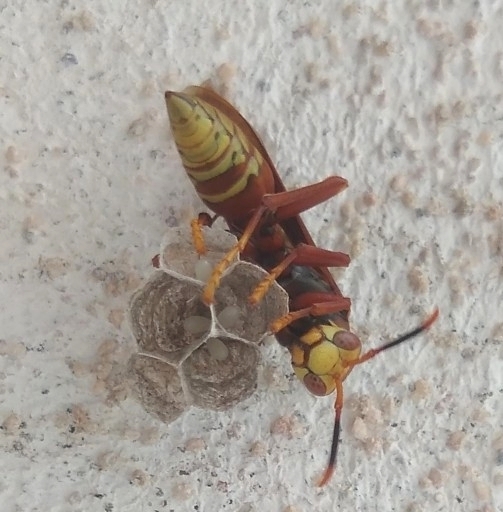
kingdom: Animalia
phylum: Arthropoda
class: Insecta
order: Hymenoptera
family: Eumenidae
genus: Polistes
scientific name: Polistes cavapyta
